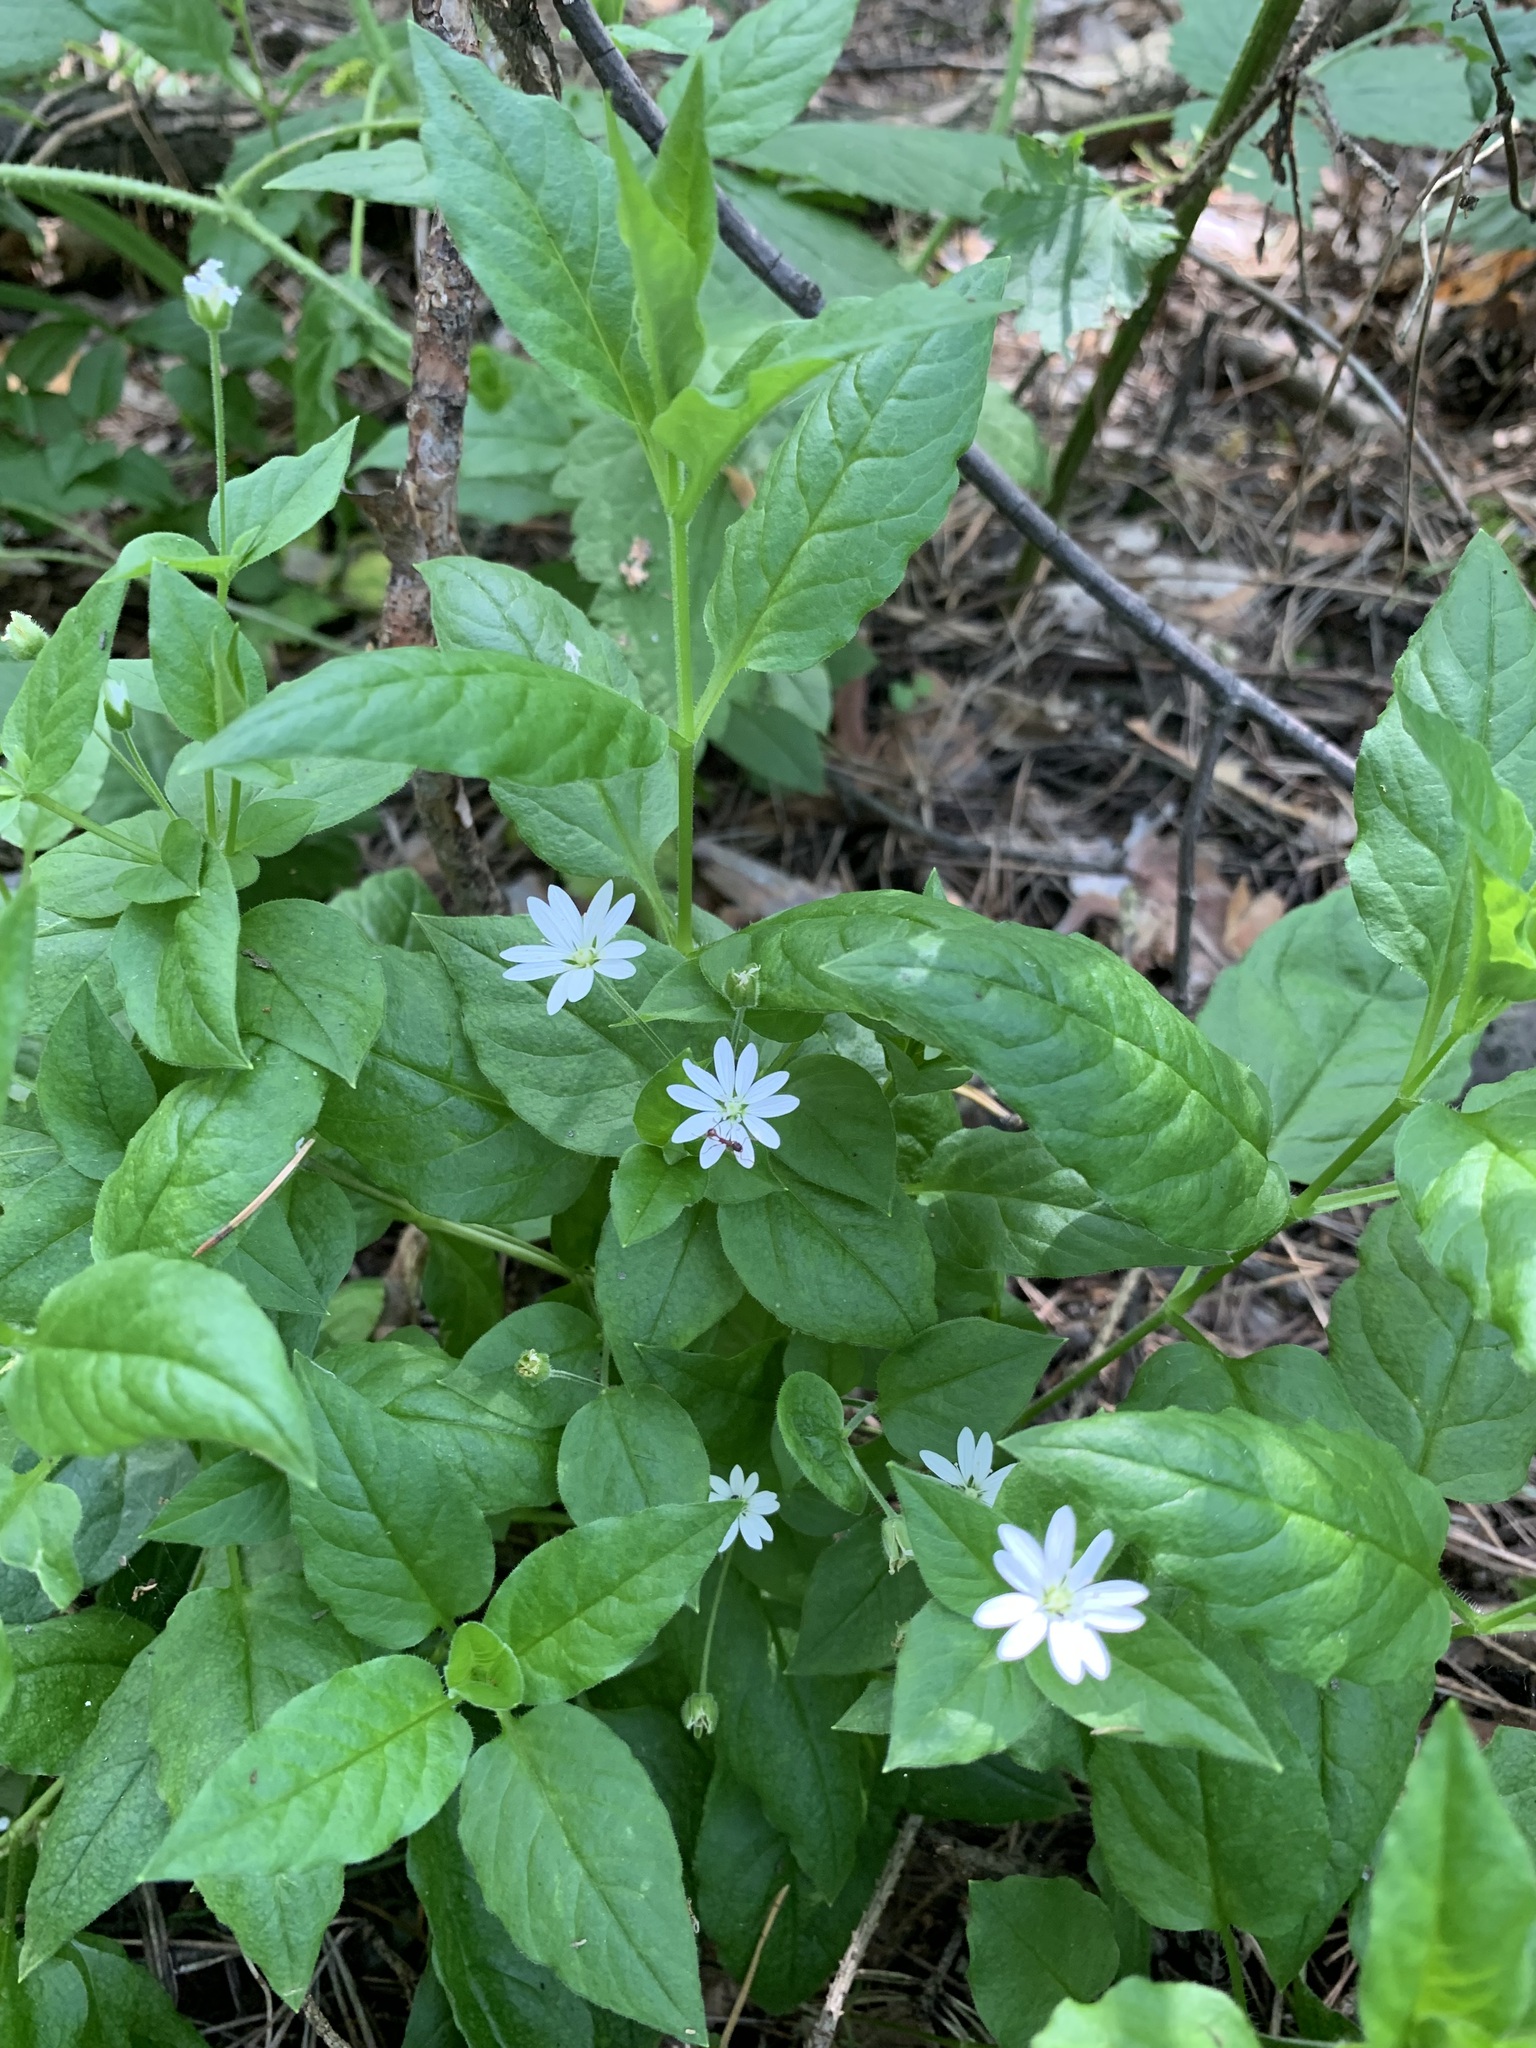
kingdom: Plantae
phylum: Tracheophyta
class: Magnoliopsida
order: Caryophyllales
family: Caryophyllaceae
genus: Stellaria
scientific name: Stellaria bungeana
